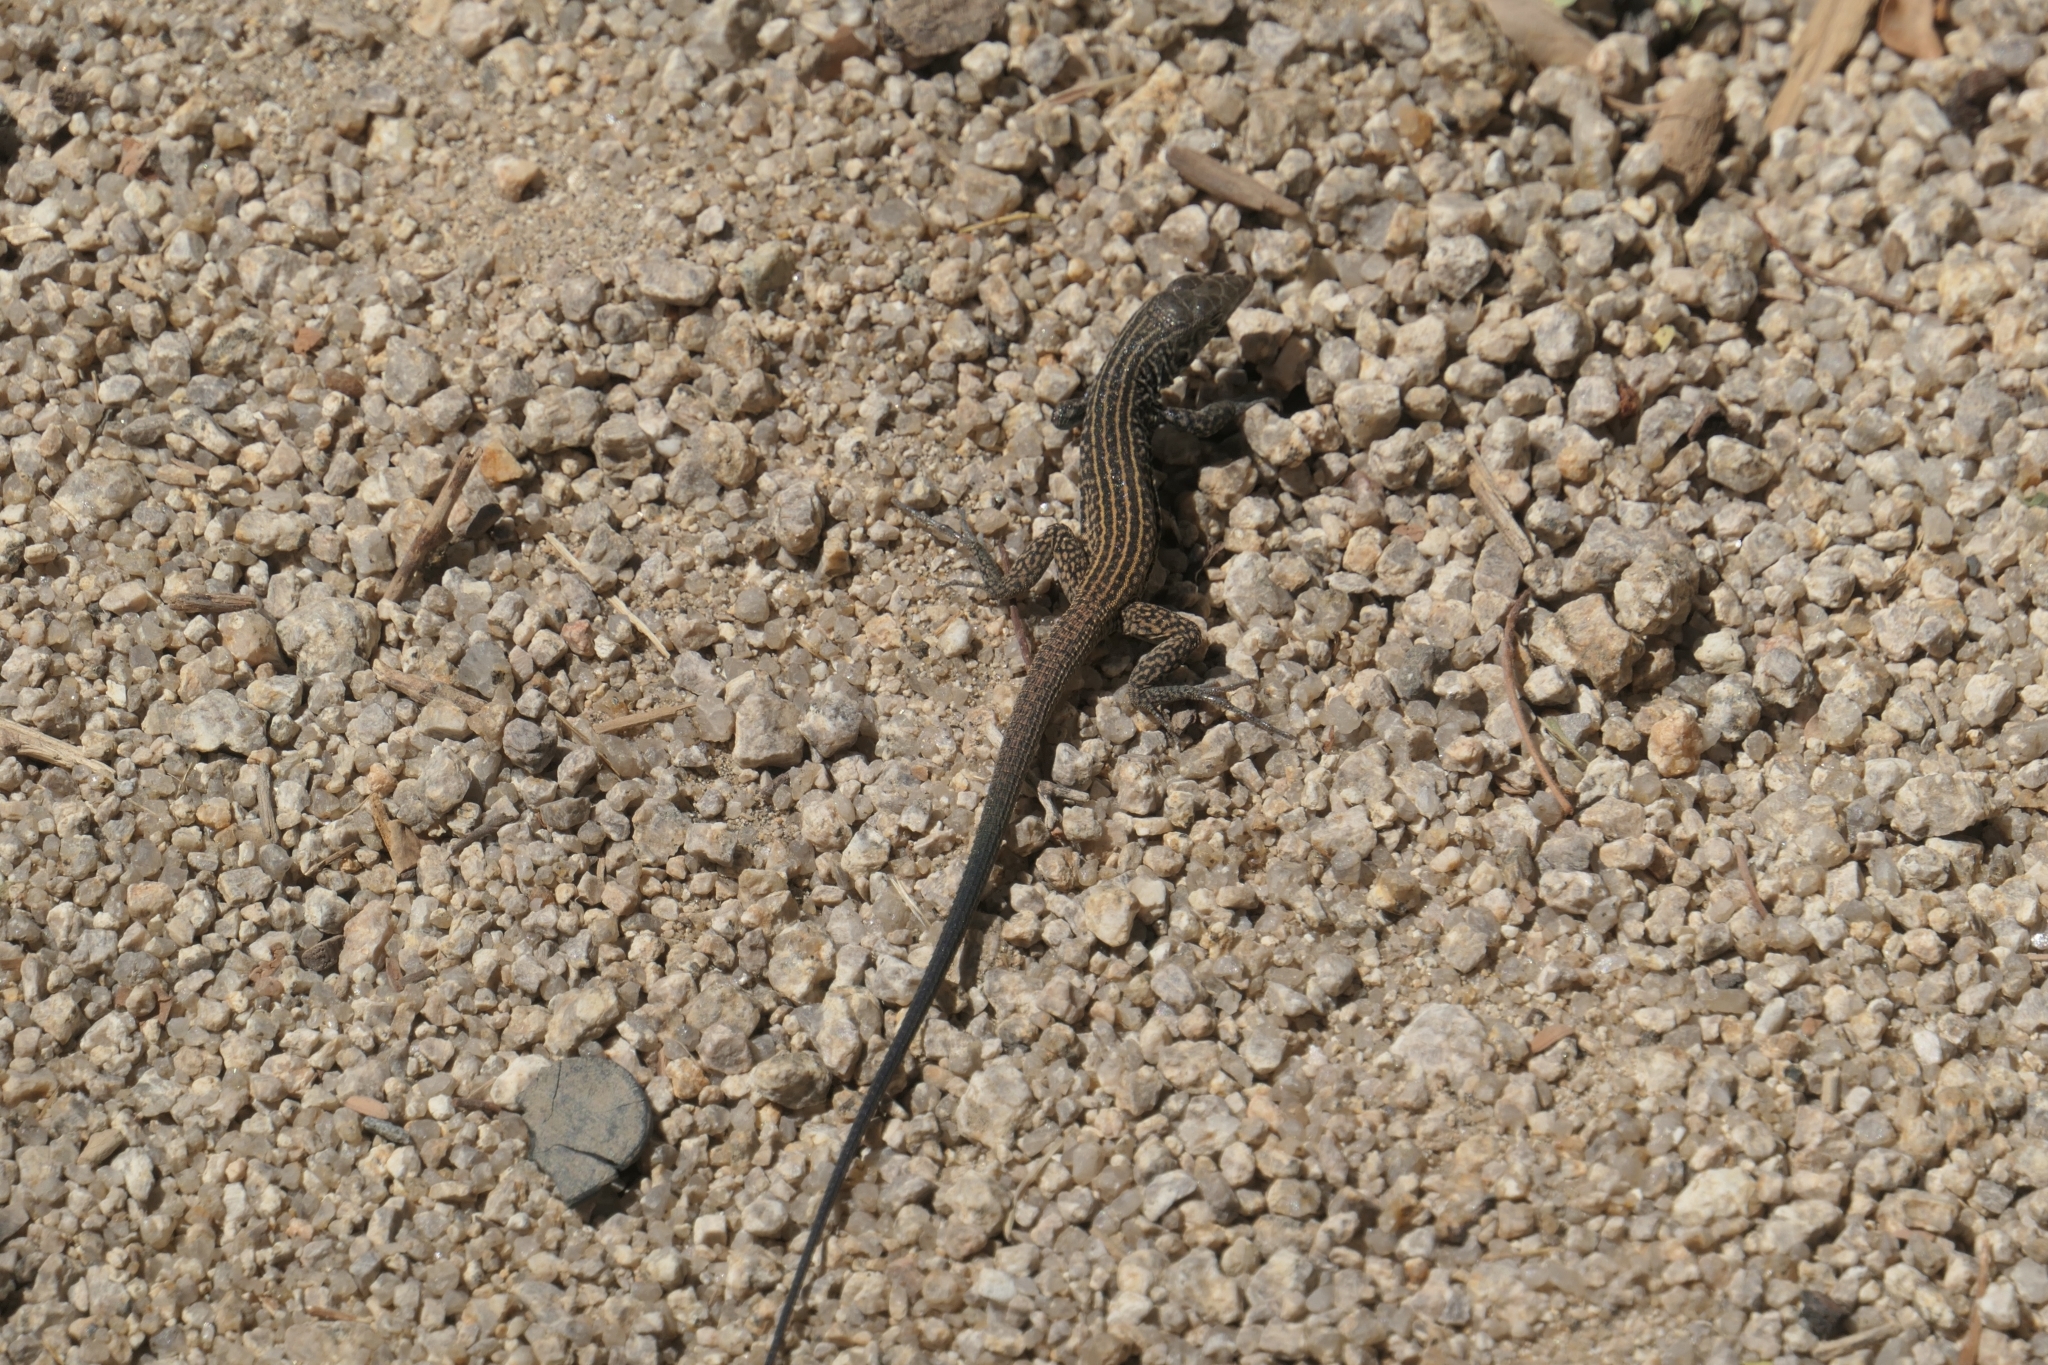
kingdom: Animalia
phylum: Chordata
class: Squamata
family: Teiidae
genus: Aspidoscelis
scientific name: Aspidoscelis tigris
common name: Tiger whiptail
